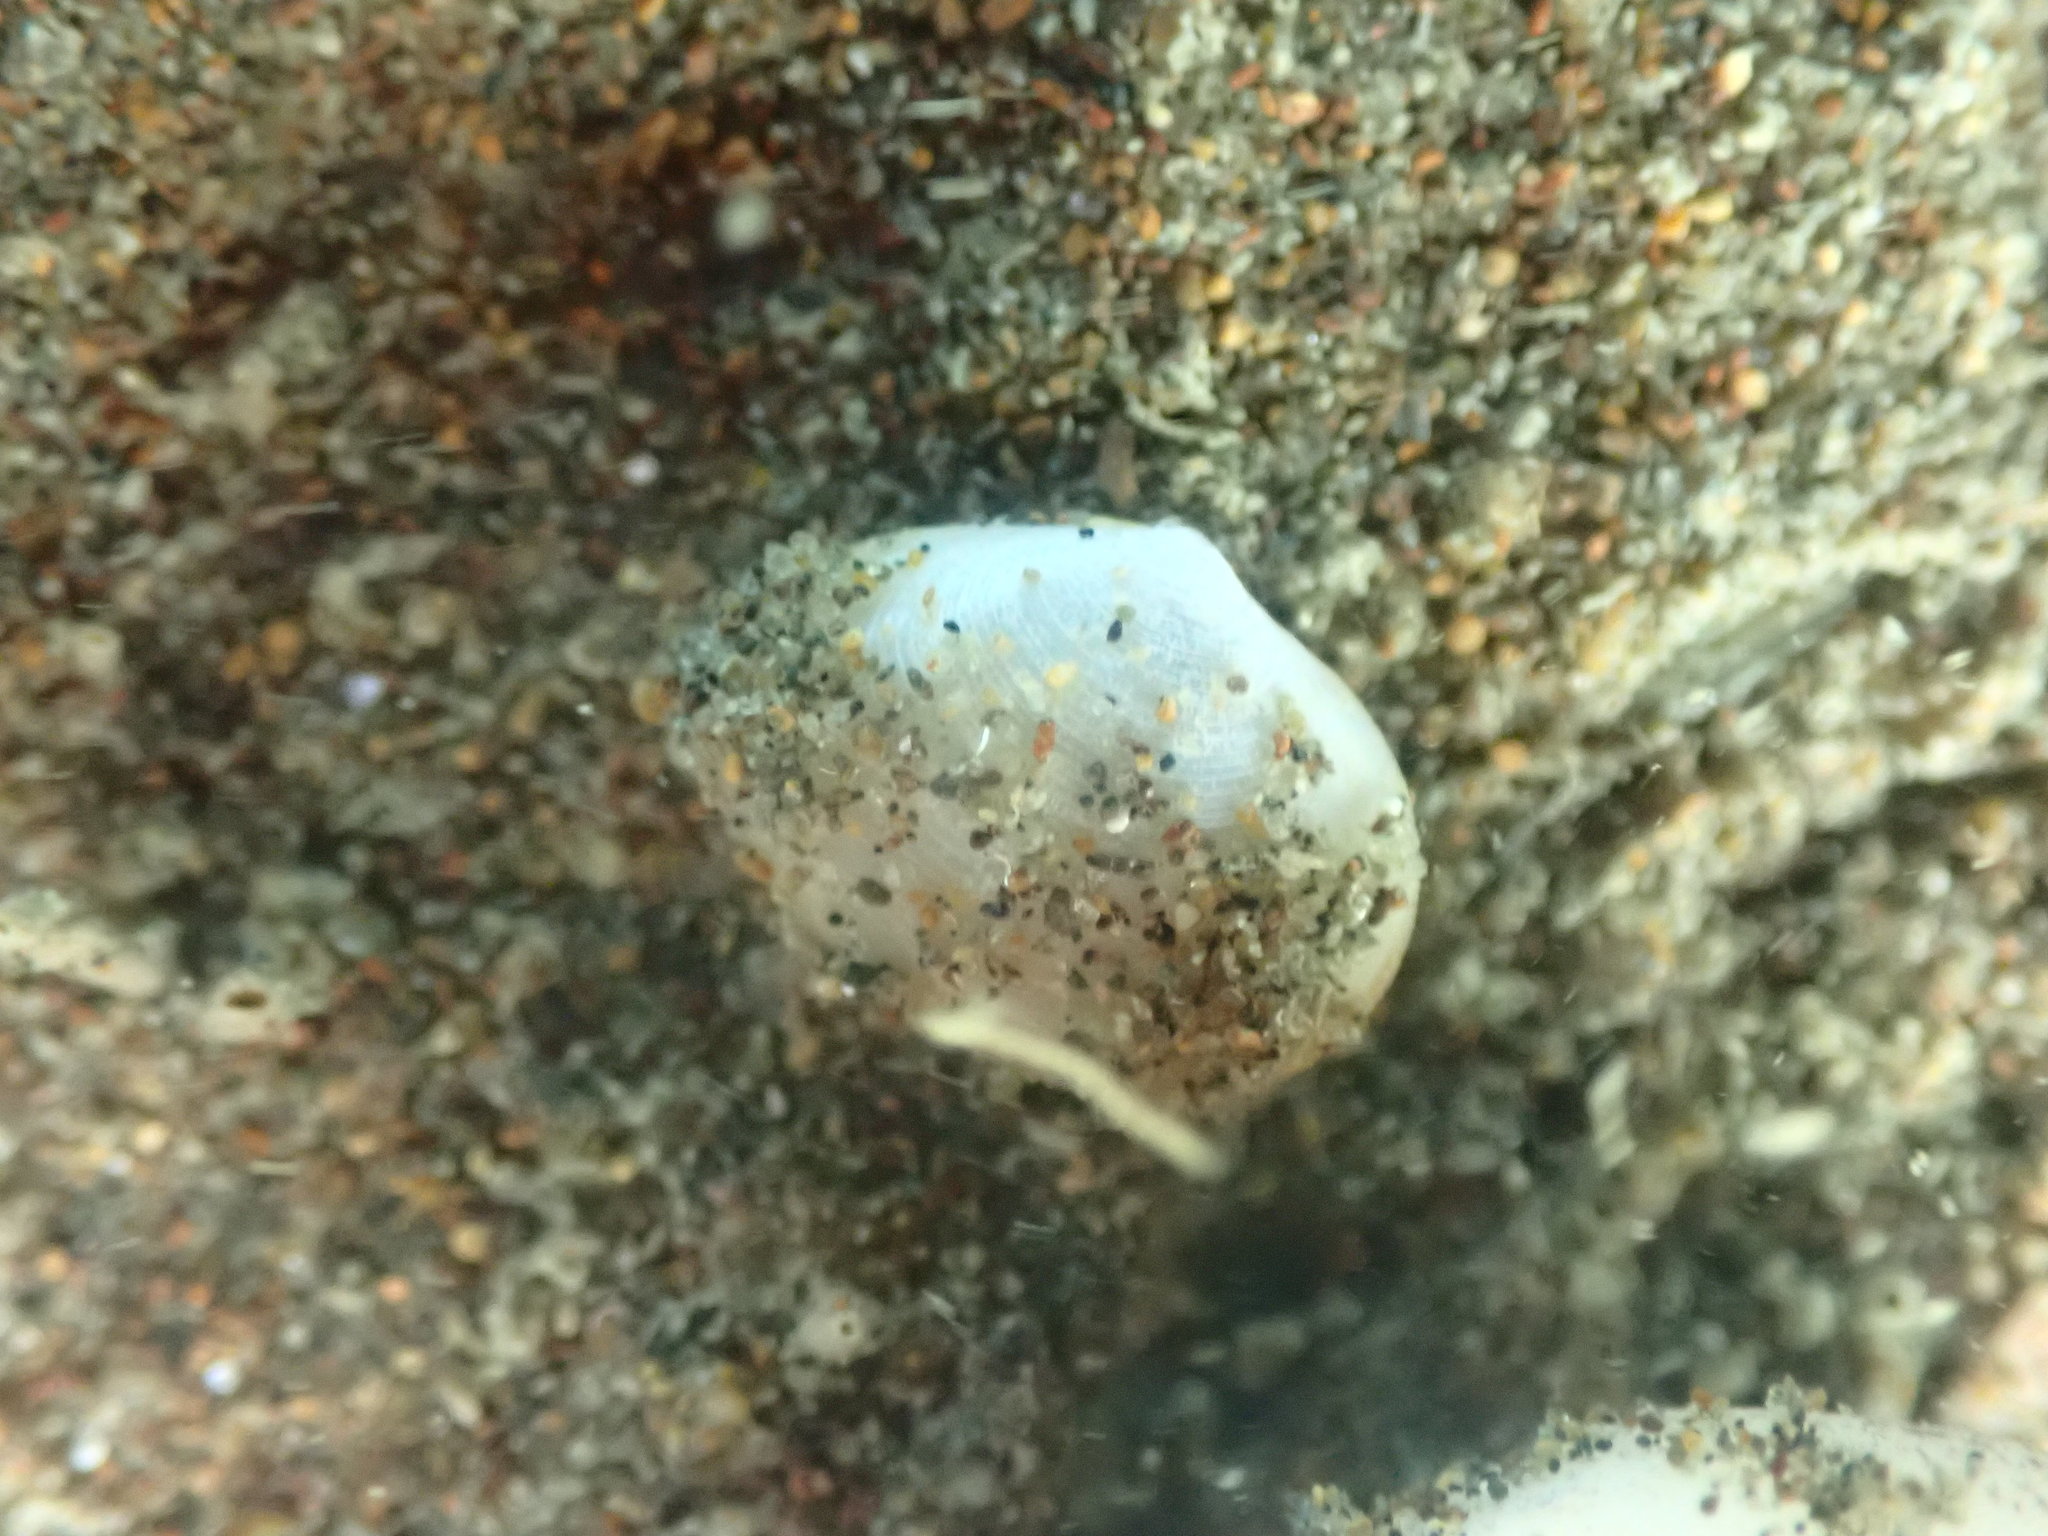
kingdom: Animalia
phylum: Mollusca
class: Bivalvia
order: Cardiida
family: Semelidae
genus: Leptomya
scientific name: Leptomya retiaria
